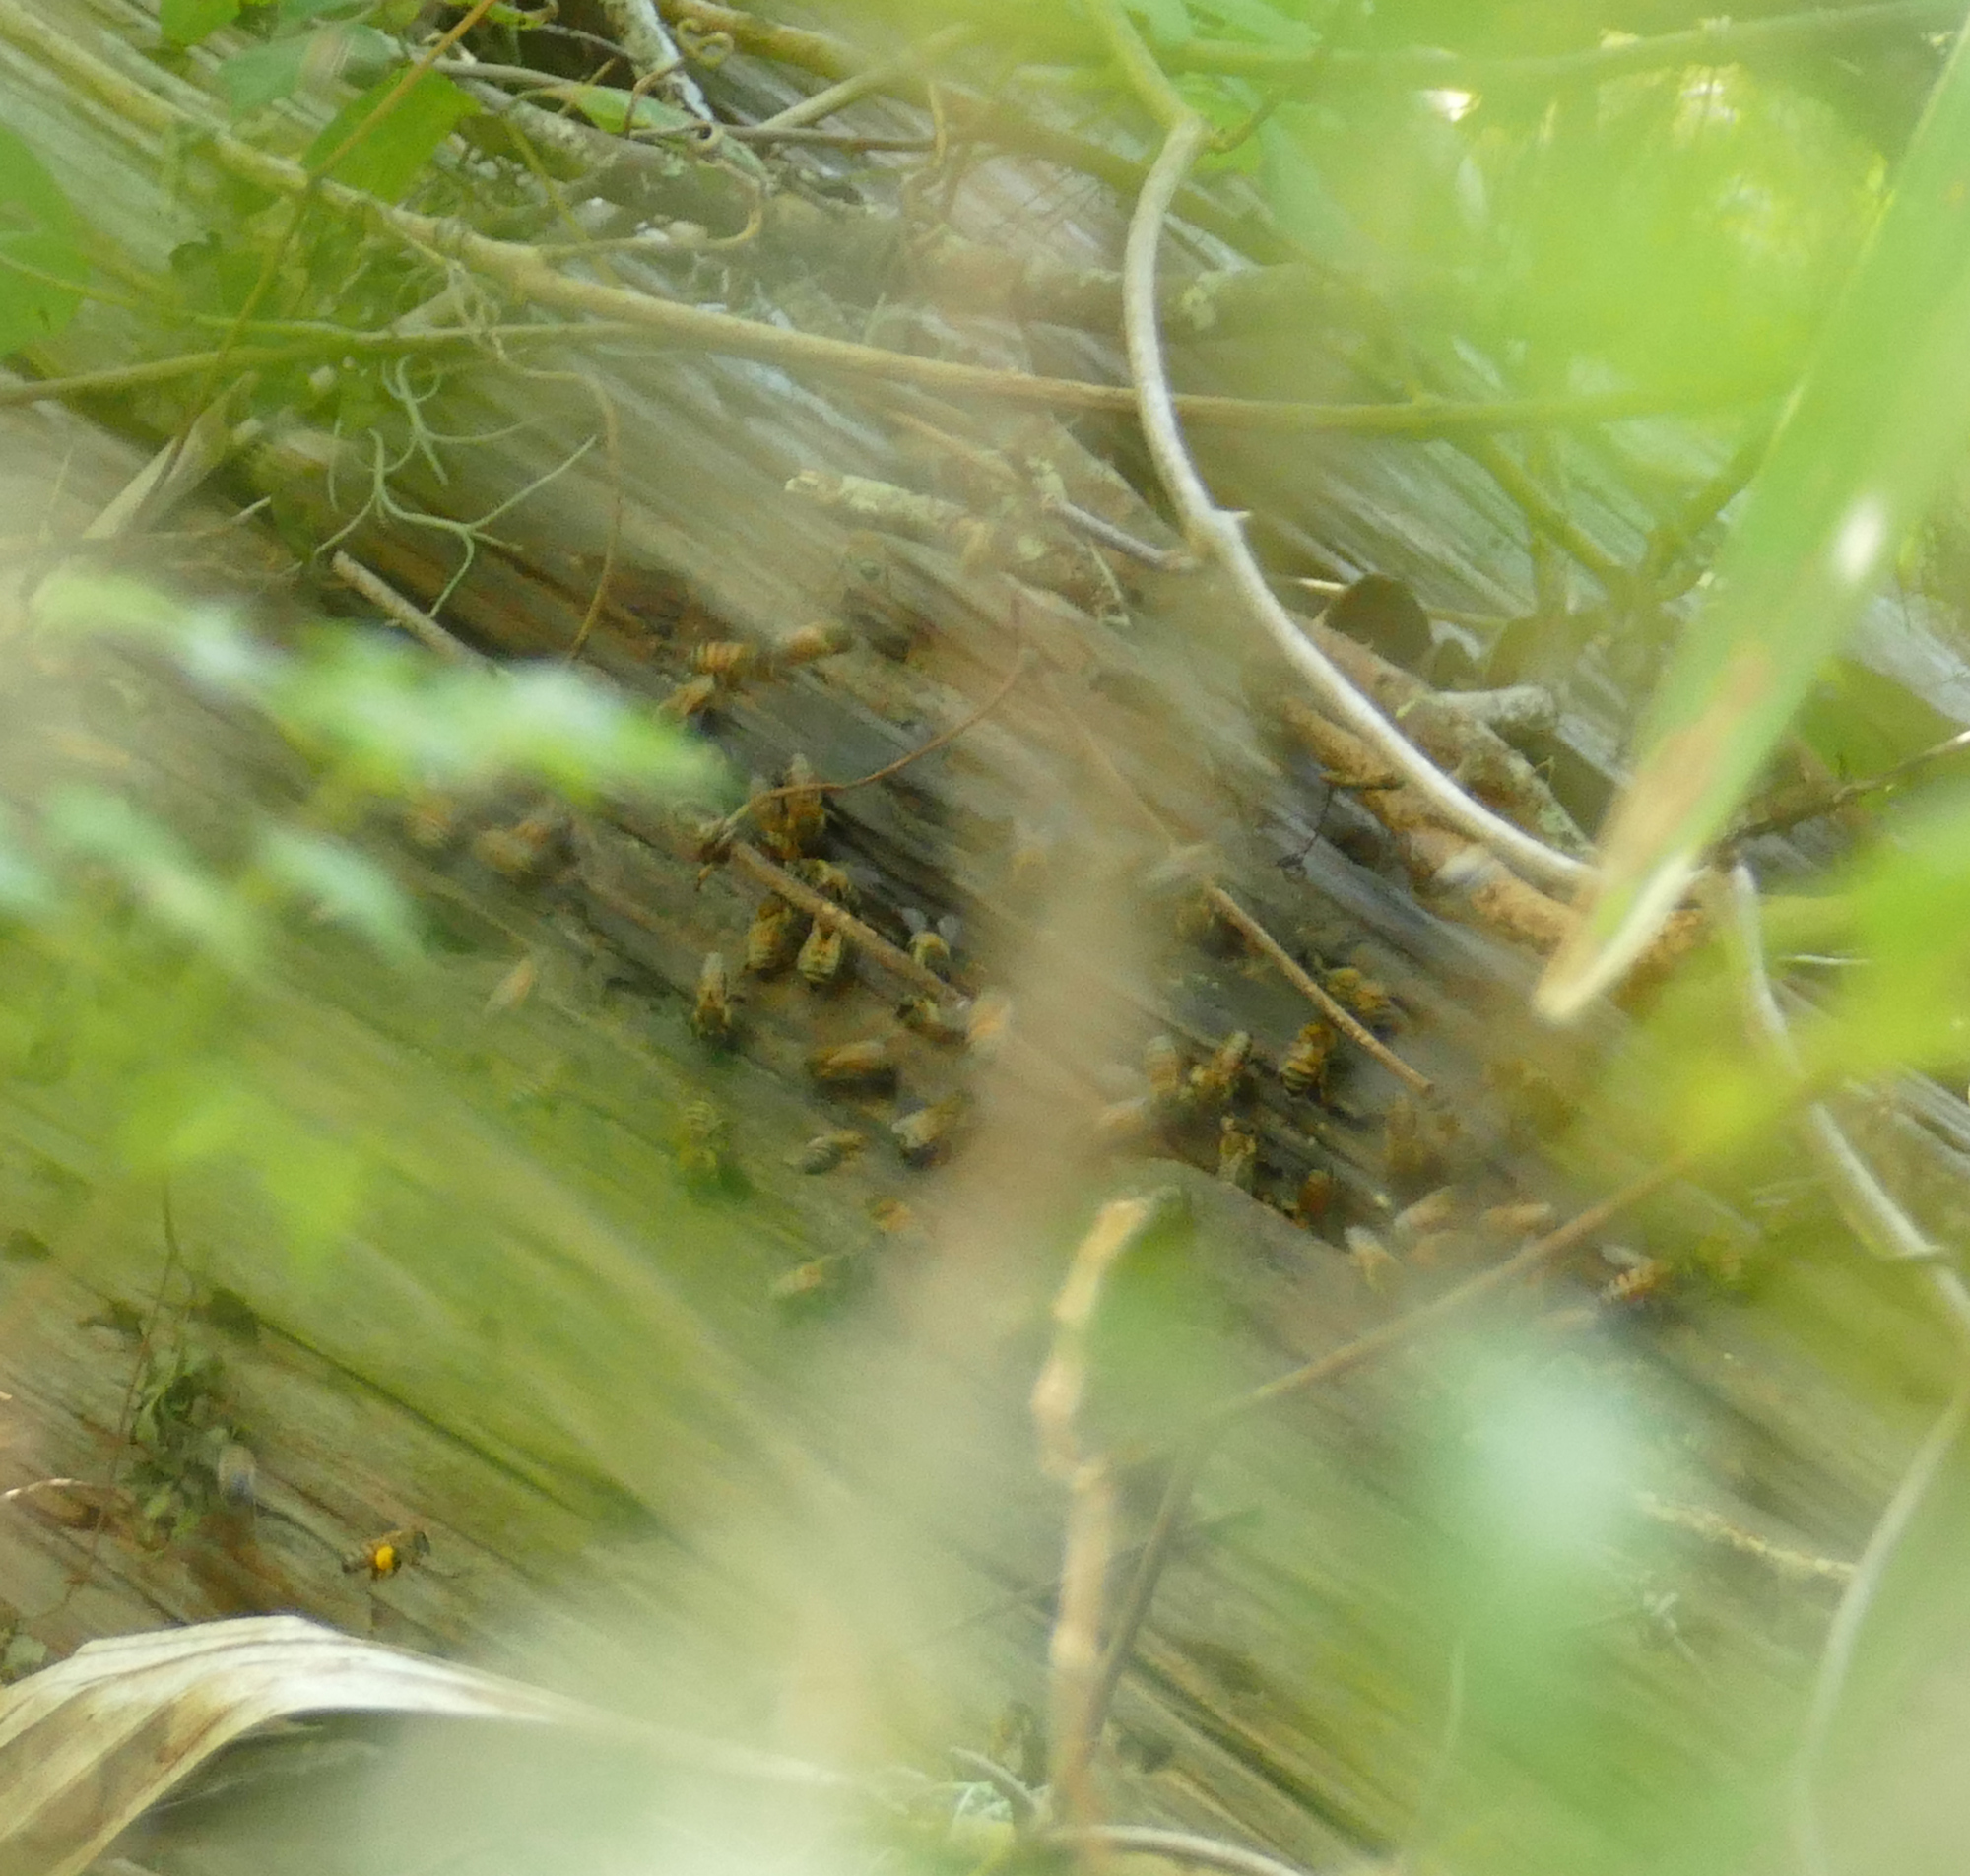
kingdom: Animalia
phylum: Arthropoda
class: Insecta
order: Hymenoptera
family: Apidae
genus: Apis
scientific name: Apis mellifera
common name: Honey bee
